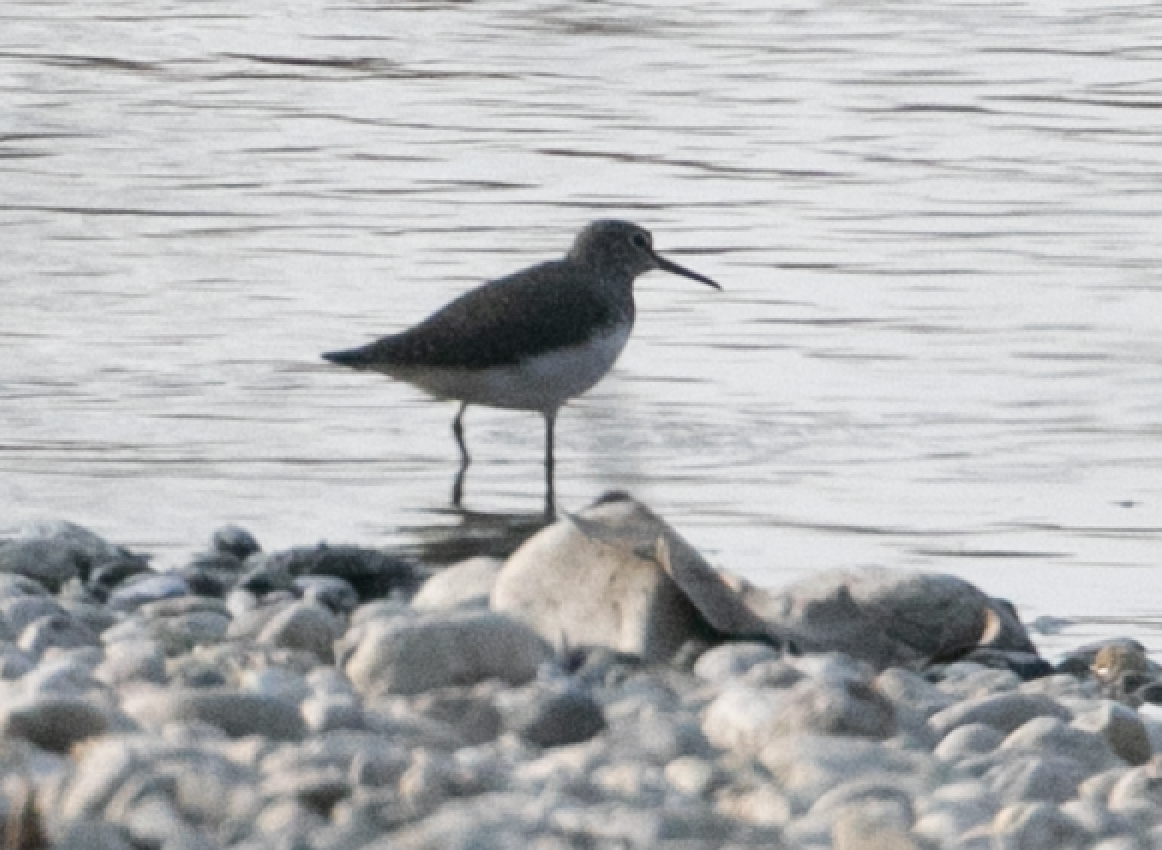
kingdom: Animalia
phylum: Chordata
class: Aves
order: Charadriiformes
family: Scolopacidae
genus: Tringa
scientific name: Tringa ochropus
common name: Green sandpiper
